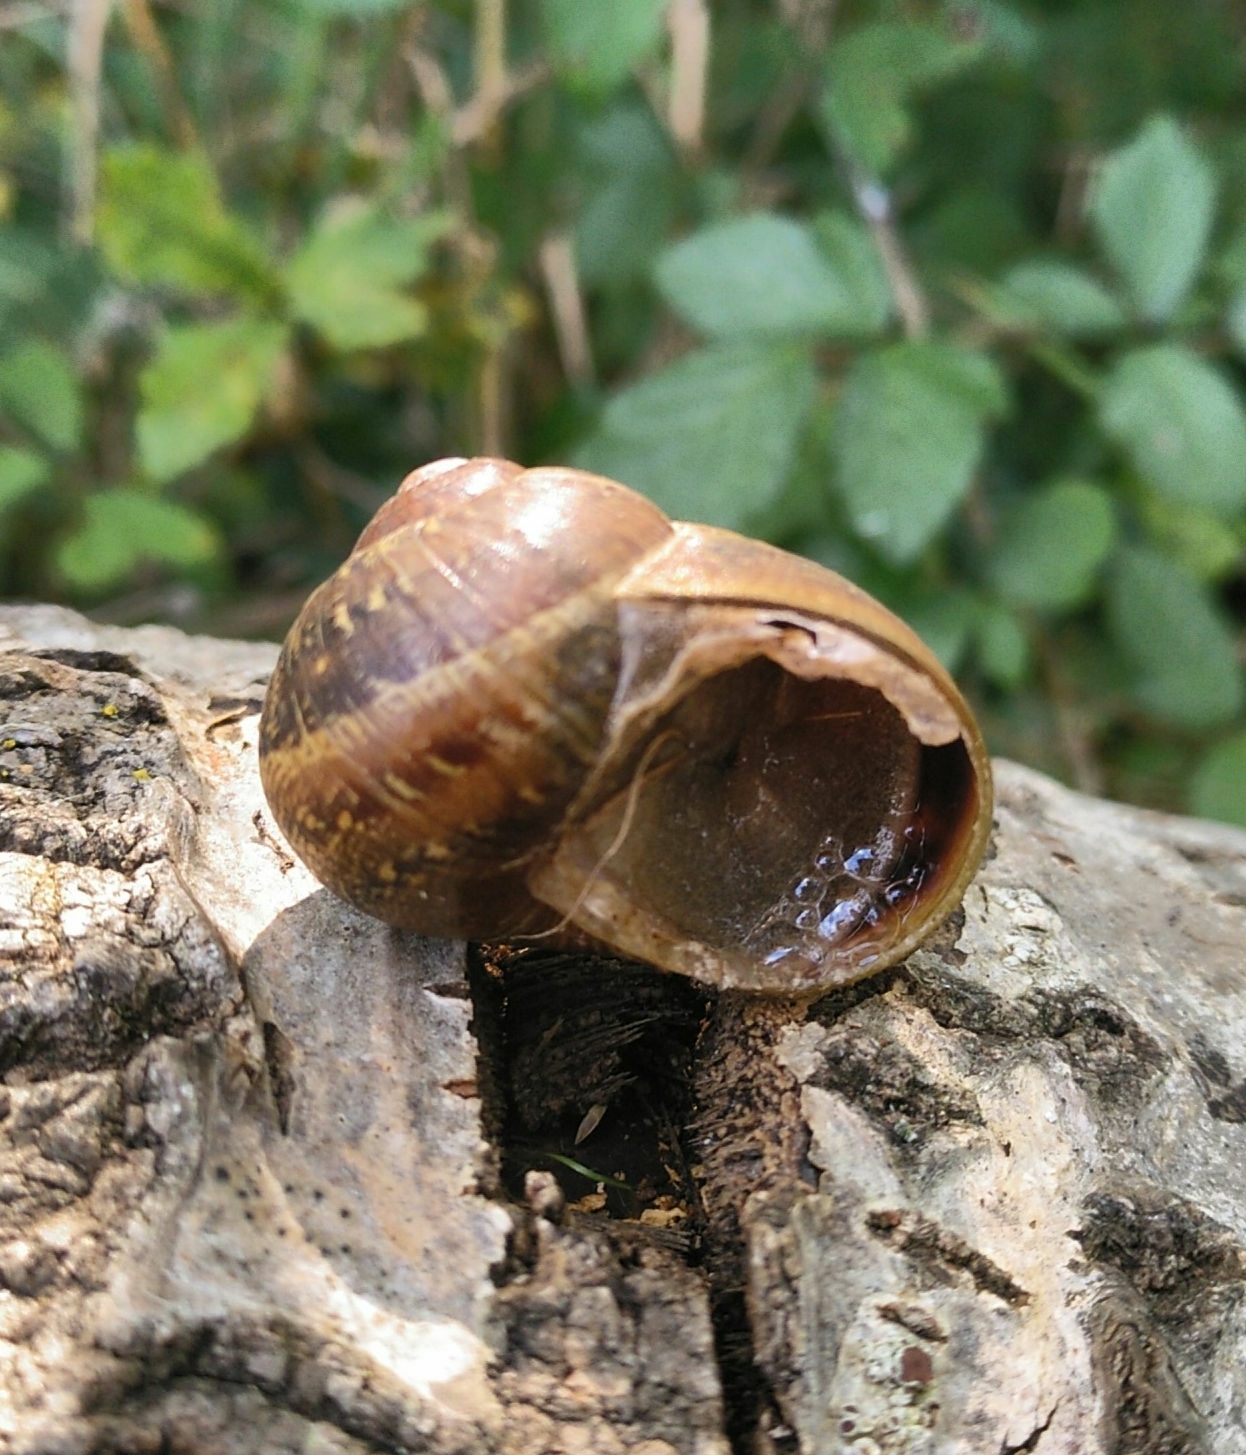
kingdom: Animalia
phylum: Mollusca
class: Gastropoda
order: Stylommatophora
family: Helicidae
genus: Cornu
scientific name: Cornu aspersum
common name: Brown garden snail
